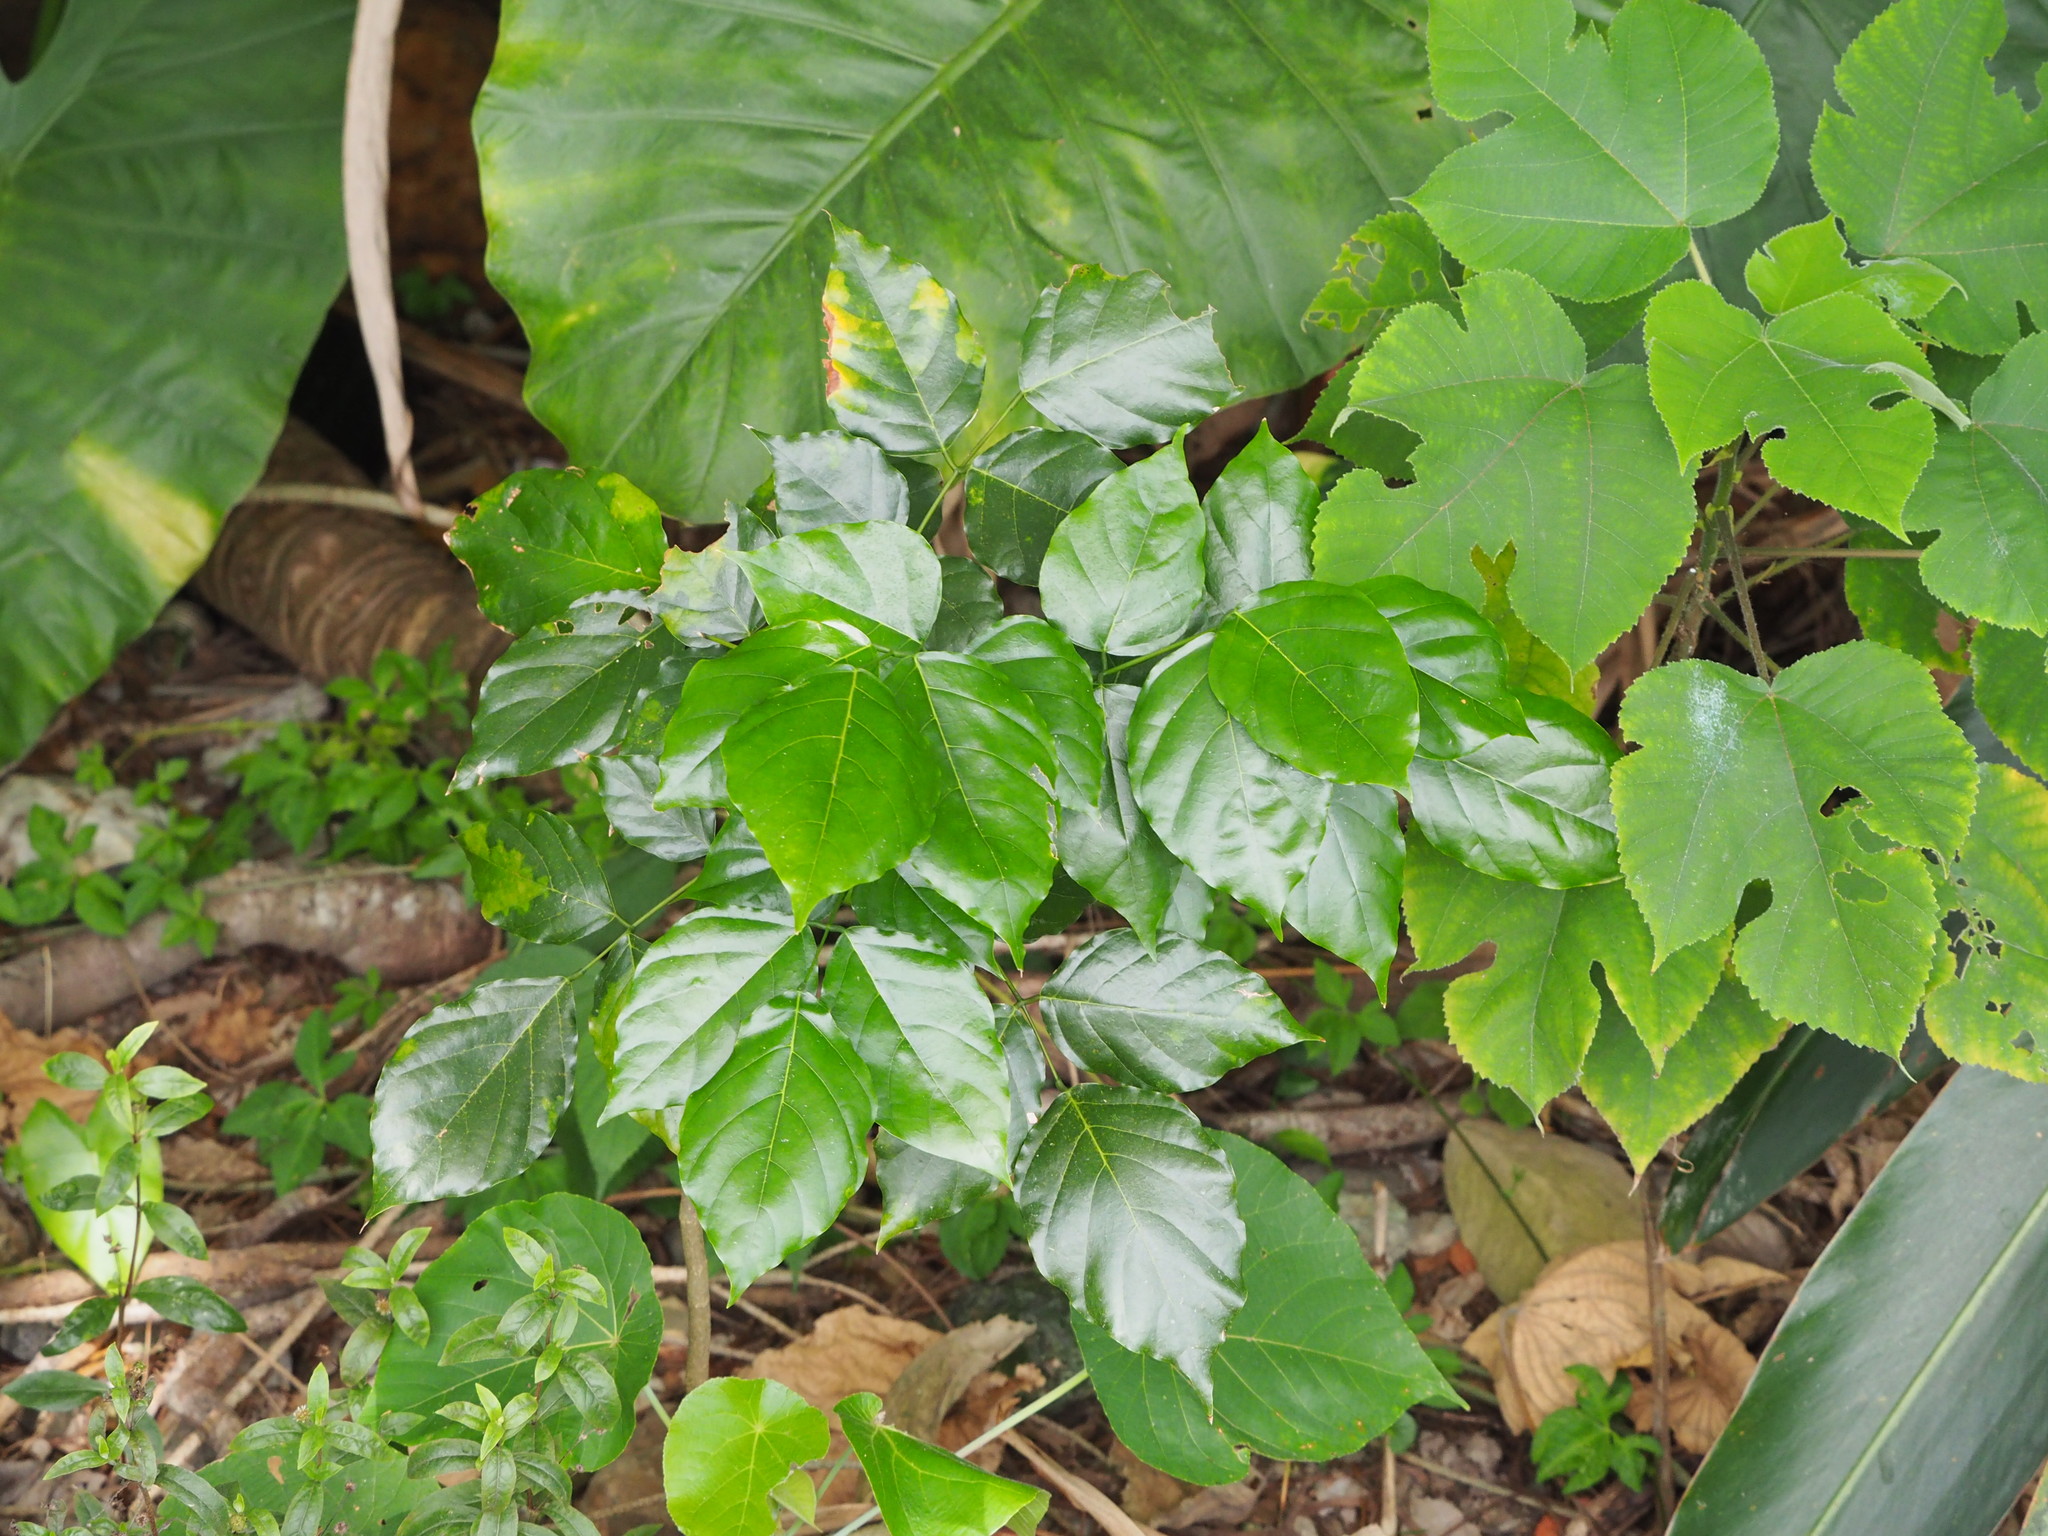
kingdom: Plantae
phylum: Tracheophyta
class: Magnoliopsida
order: Fabales
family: Fabaceae
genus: Pongamia
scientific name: Pongamia pinnata
